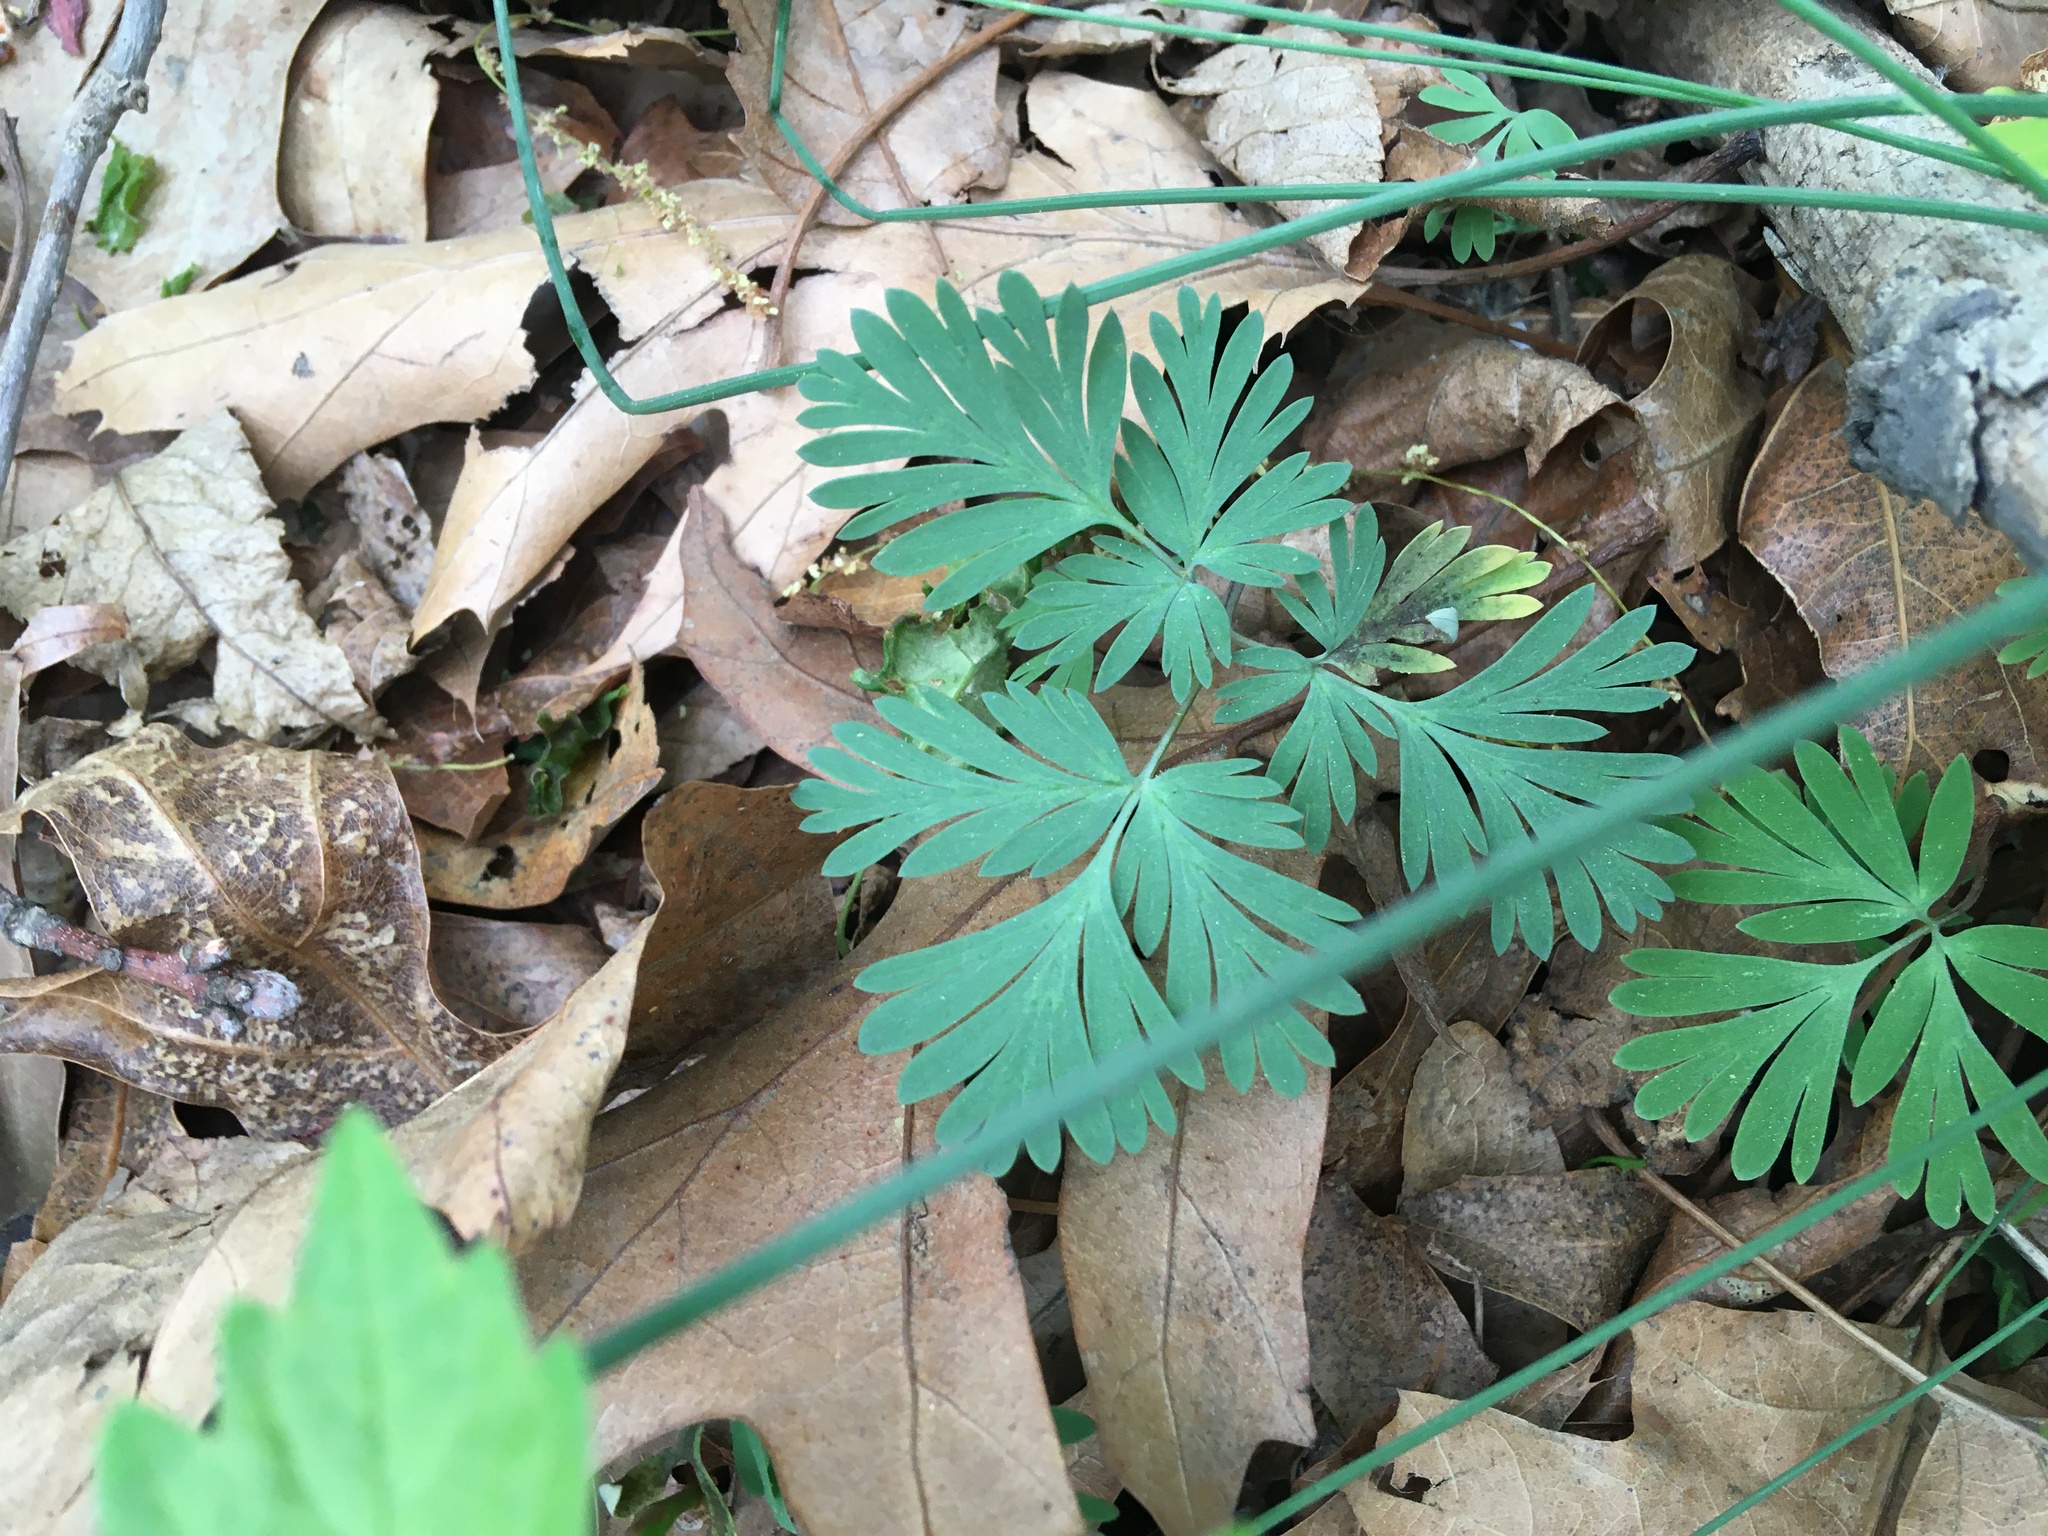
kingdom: Plantae
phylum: Tracheophyta
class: Magnoliopsida
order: Ranunculales
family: Papaveraceae
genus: Dicentra
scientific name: Dicentra cucullaria
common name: Dutchman's breeches
